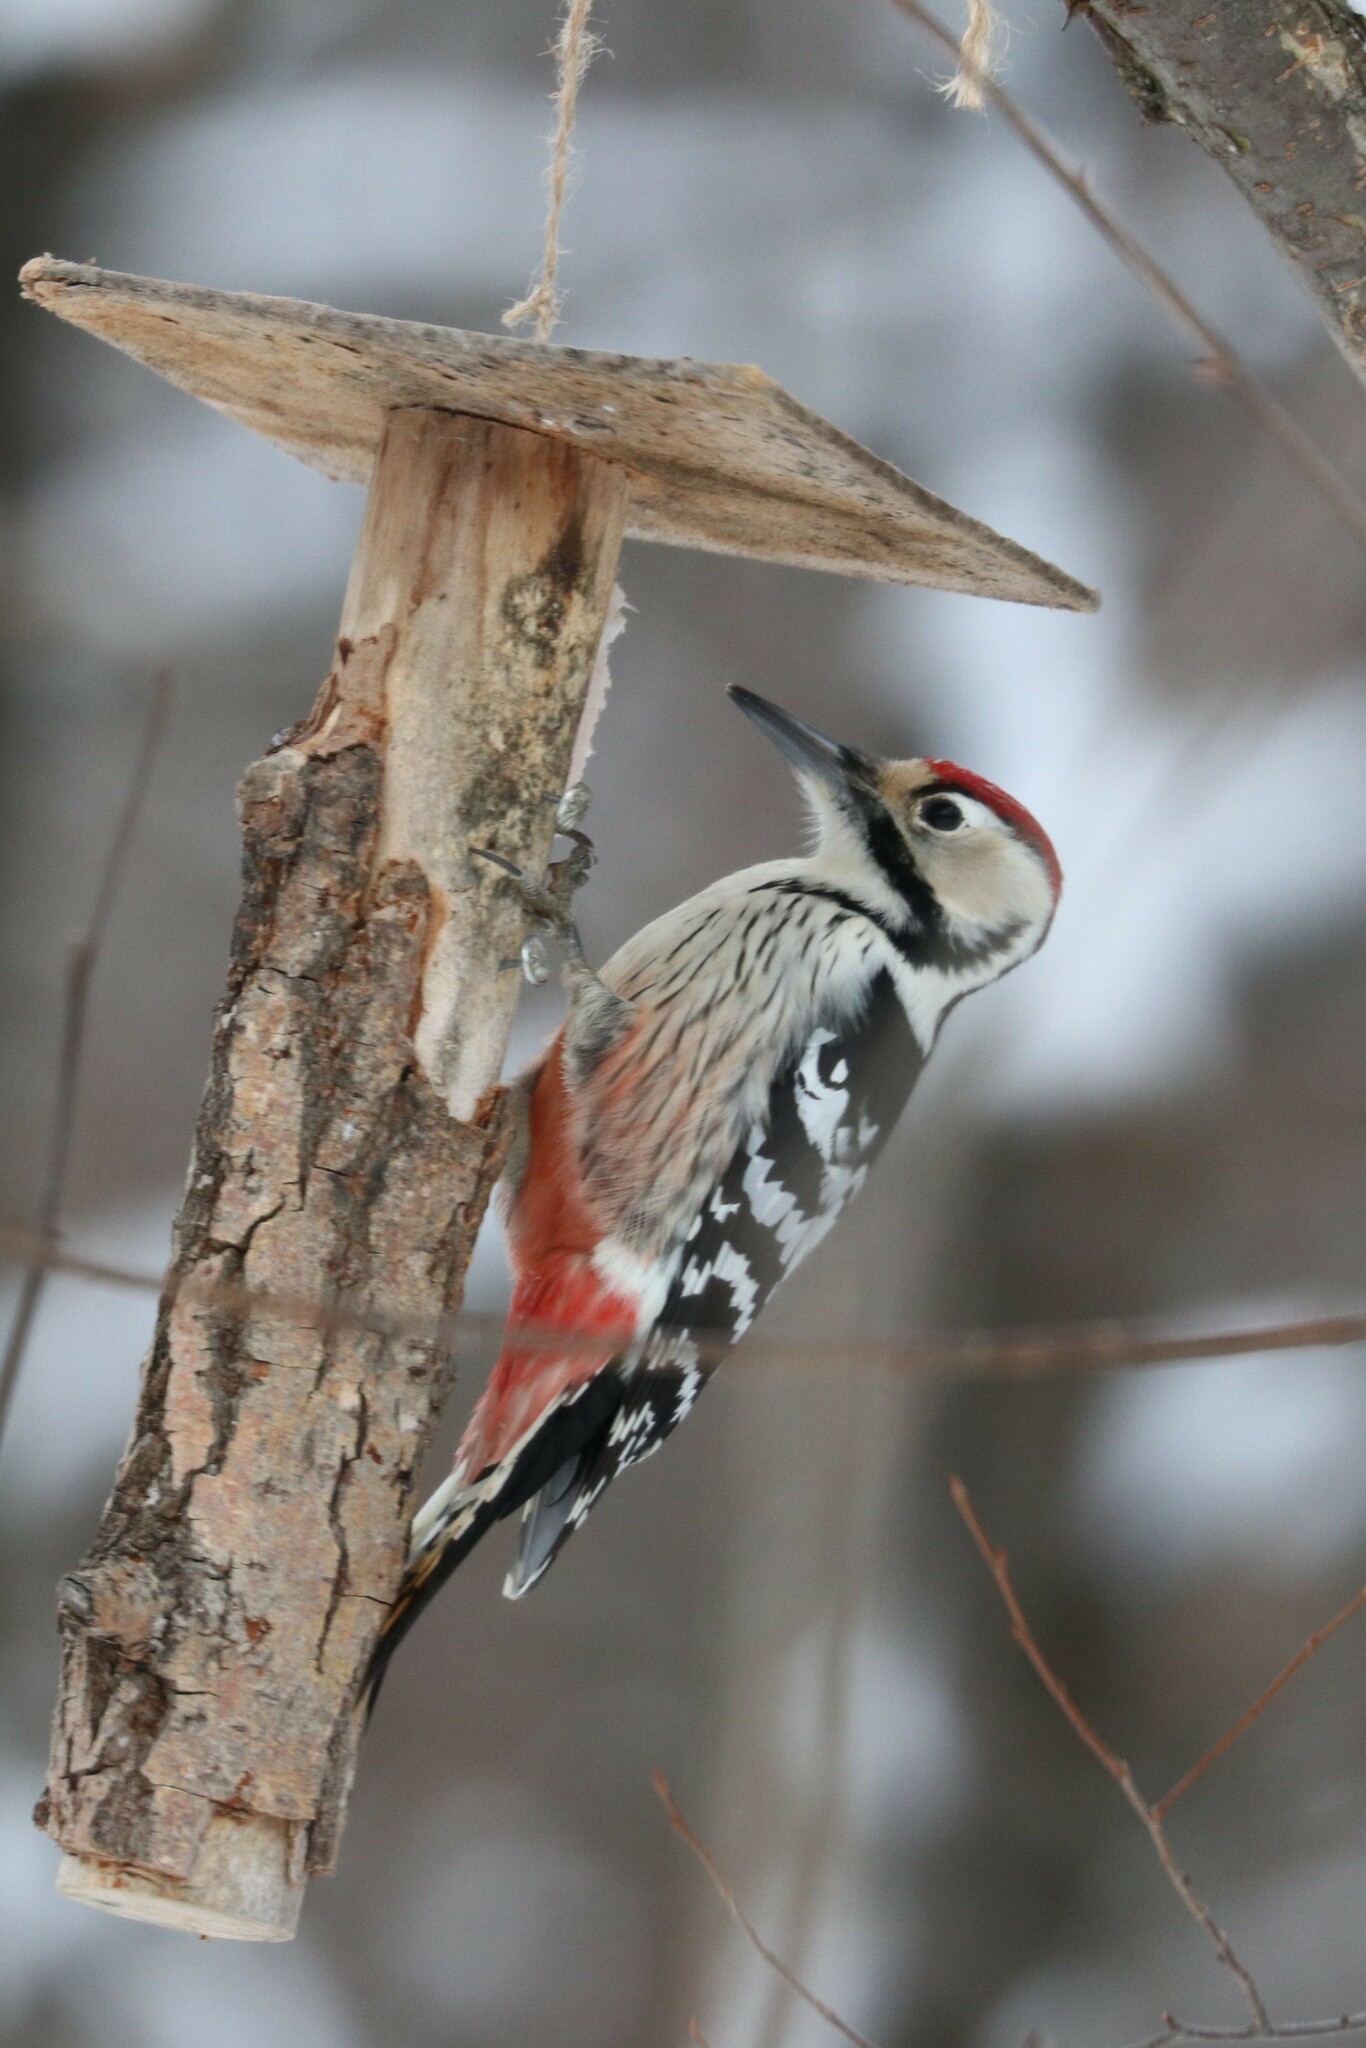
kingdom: Animalia
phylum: Chordata
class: Aves
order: Piciformes
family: Picidae
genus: Dendrocopos
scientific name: Dendrocopos leucotos
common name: White-backed woodpecker
